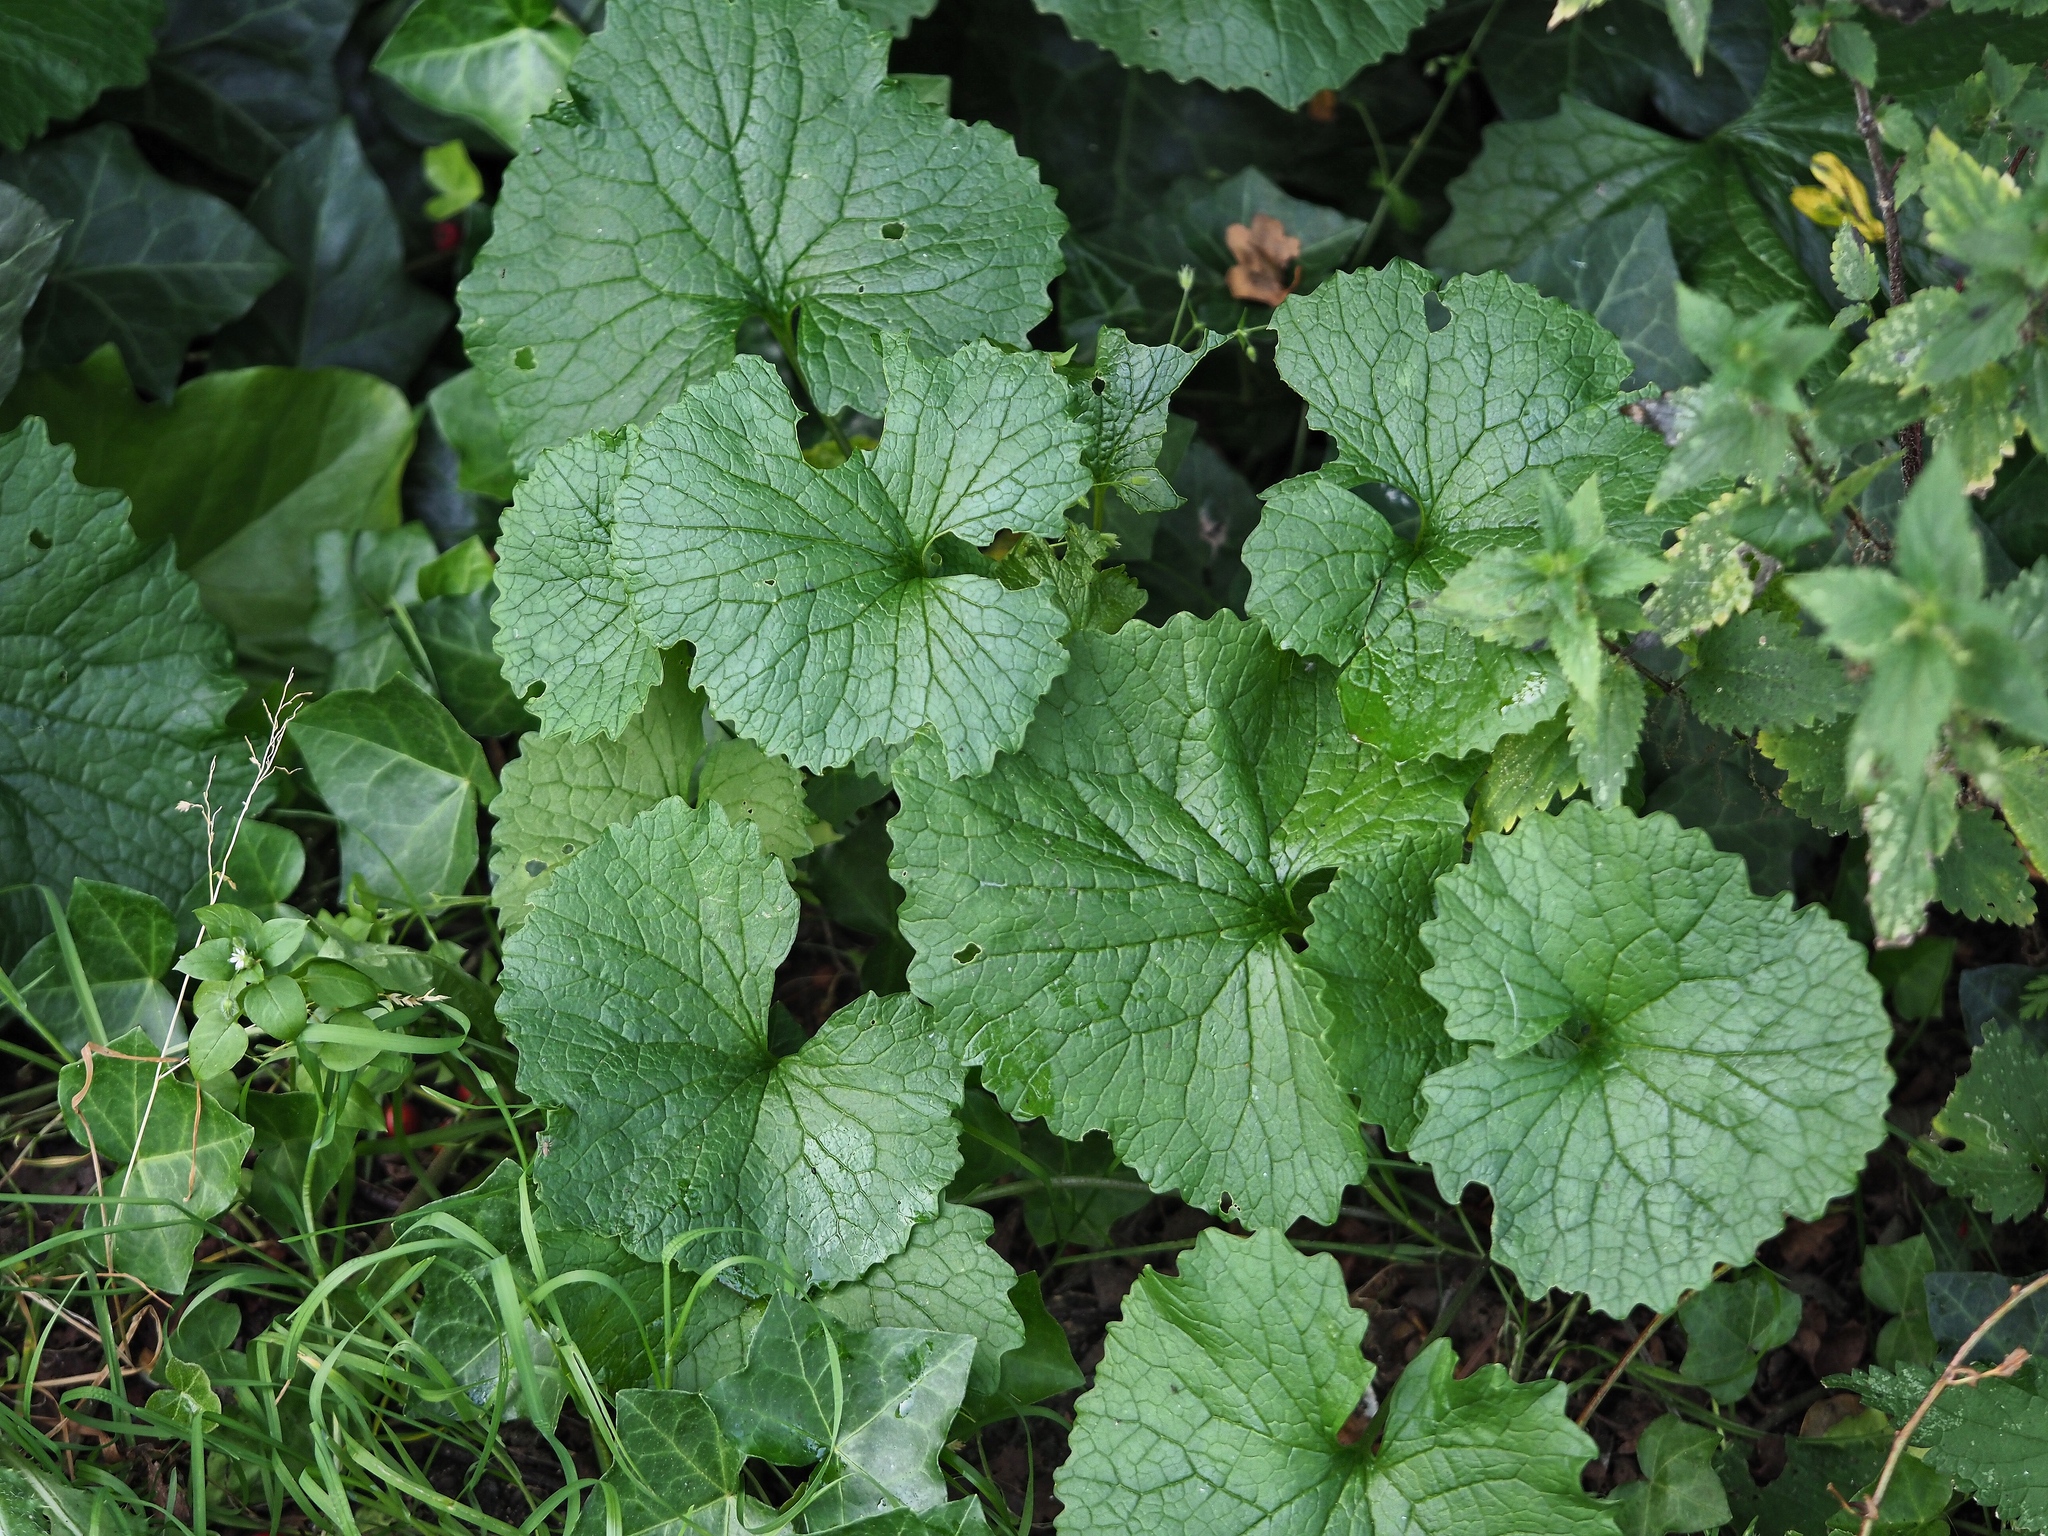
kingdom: Plantae
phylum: Tracheophyta
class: Magnoliopsida
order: Brassicales
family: Brassicaceae
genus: Alliaria
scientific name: Alliaria petiolata
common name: Garlic mustard
